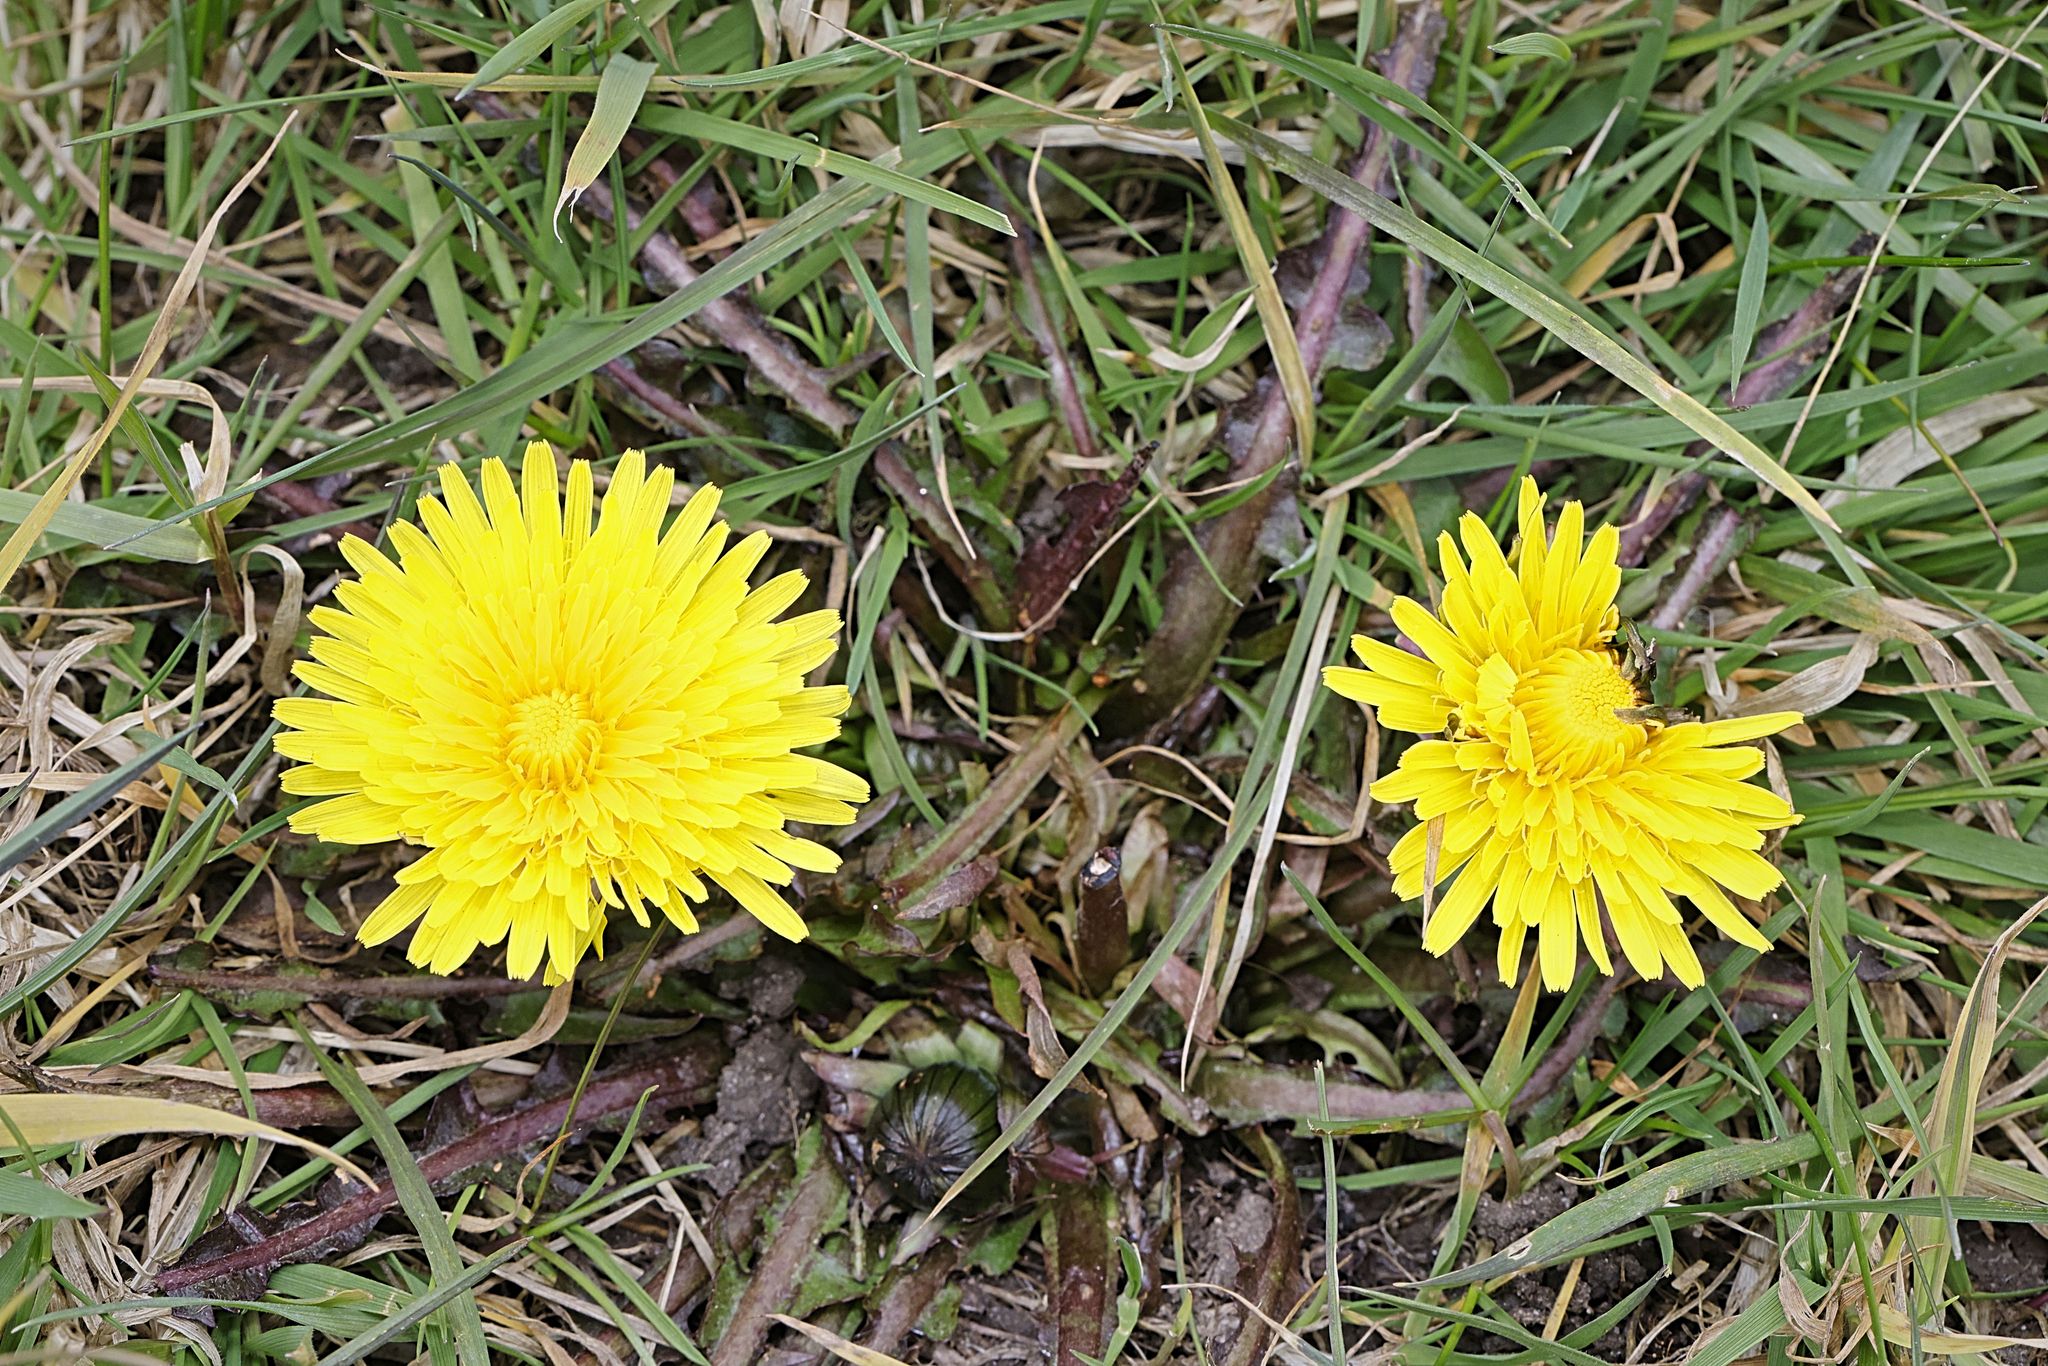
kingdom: Plantae
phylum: Tracheophyta
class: Magnoliopsida
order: Asterales
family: Asteraceae
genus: Taraxacum
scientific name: Taraxacum officinale
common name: Common dandelion
